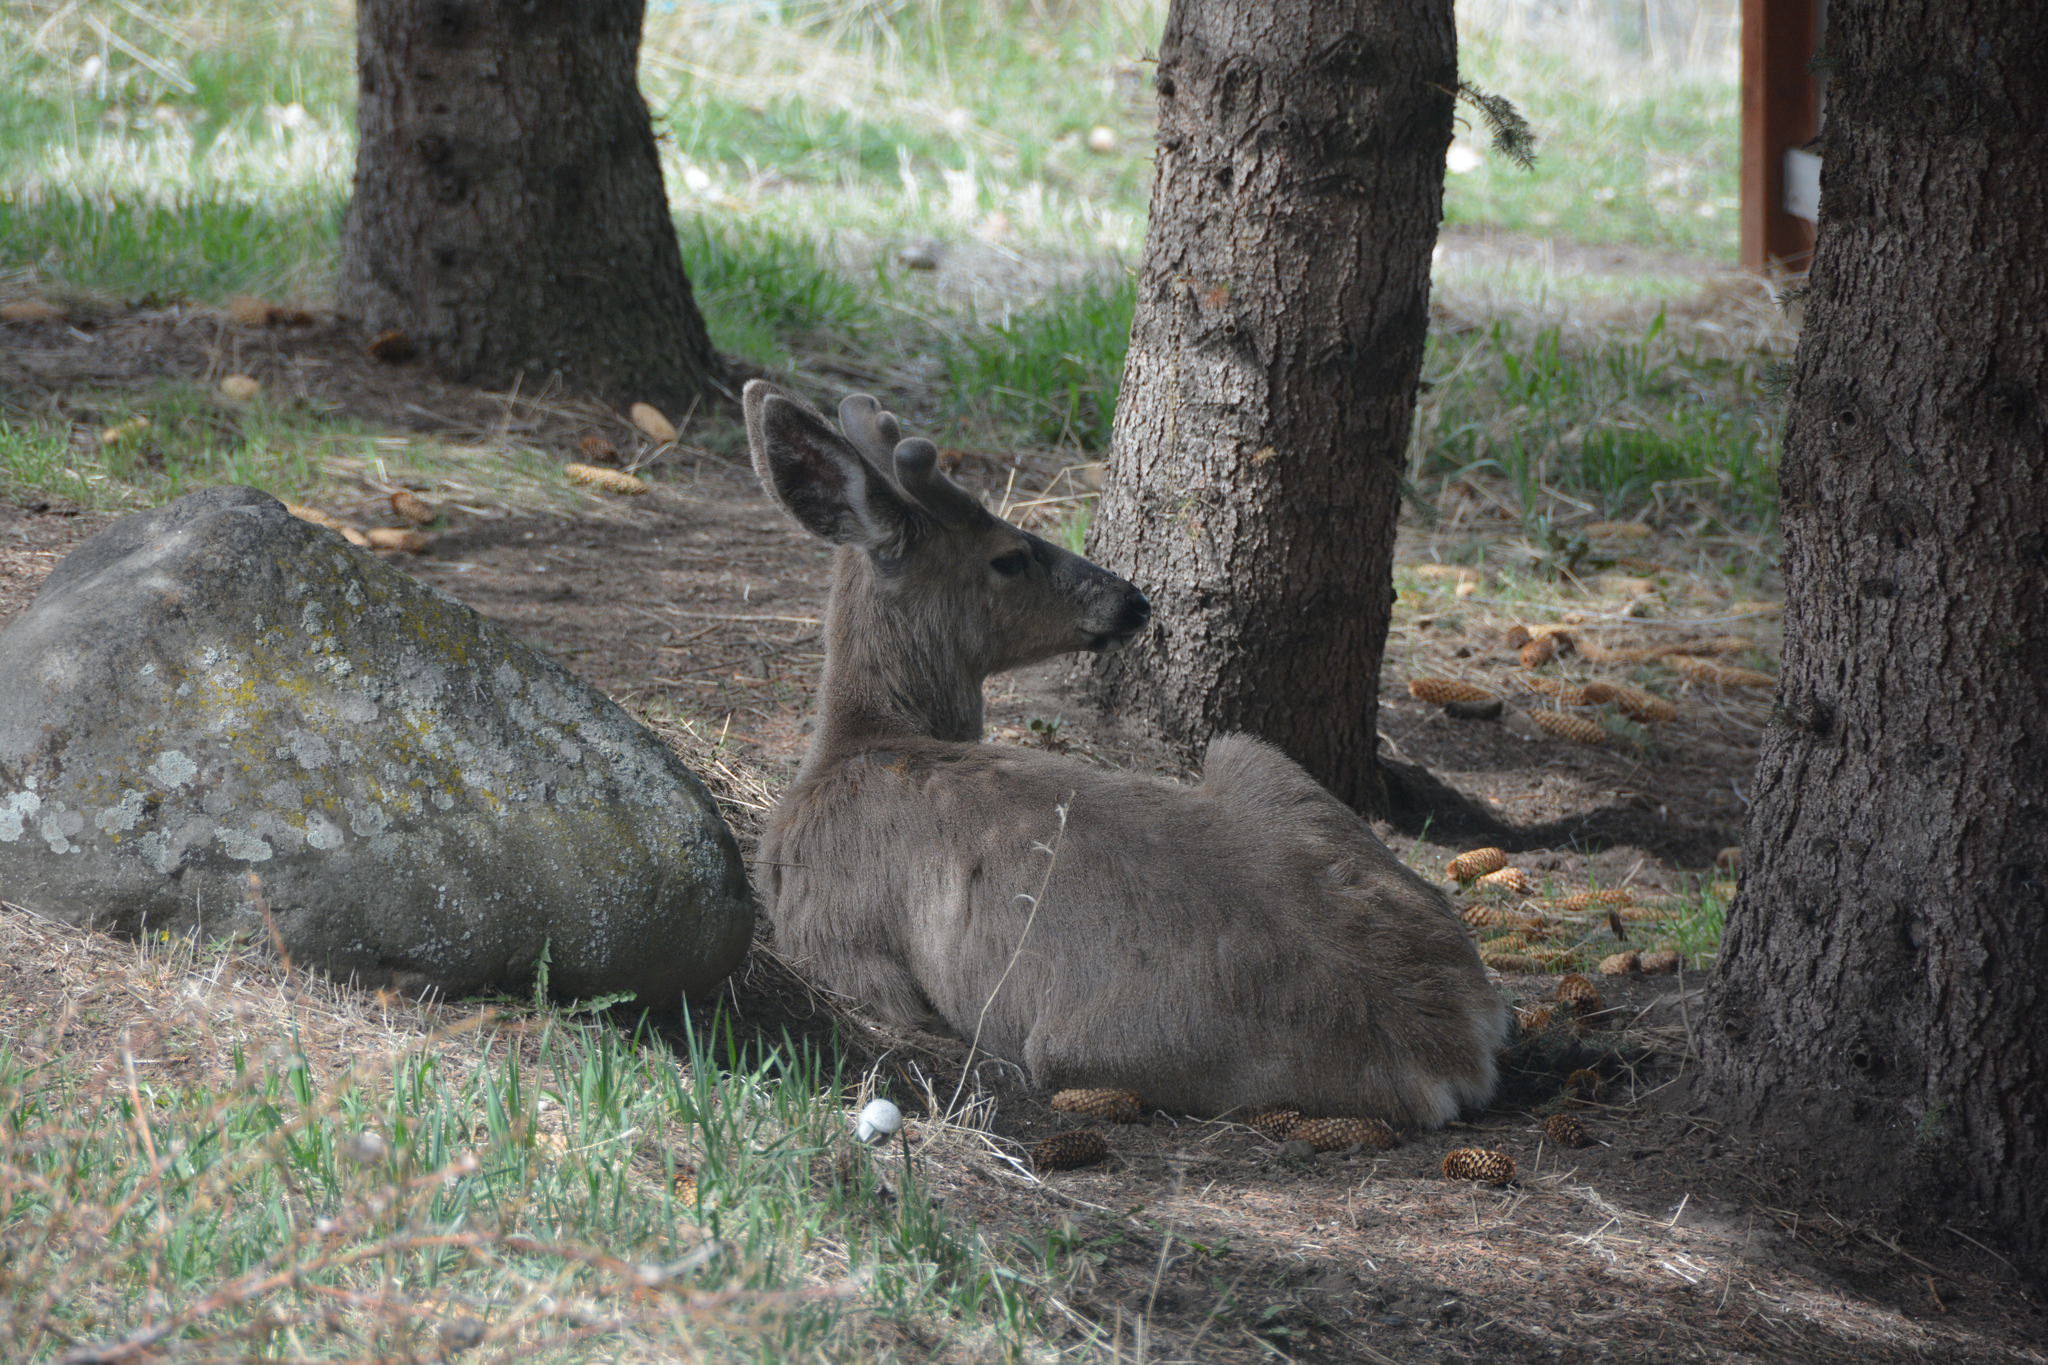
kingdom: Animalia
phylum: Chordata
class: Mammalia
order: Artiodactyla
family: Cervidae
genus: Odocoileus
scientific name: Odocoileus hemionus
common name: Mule deer
